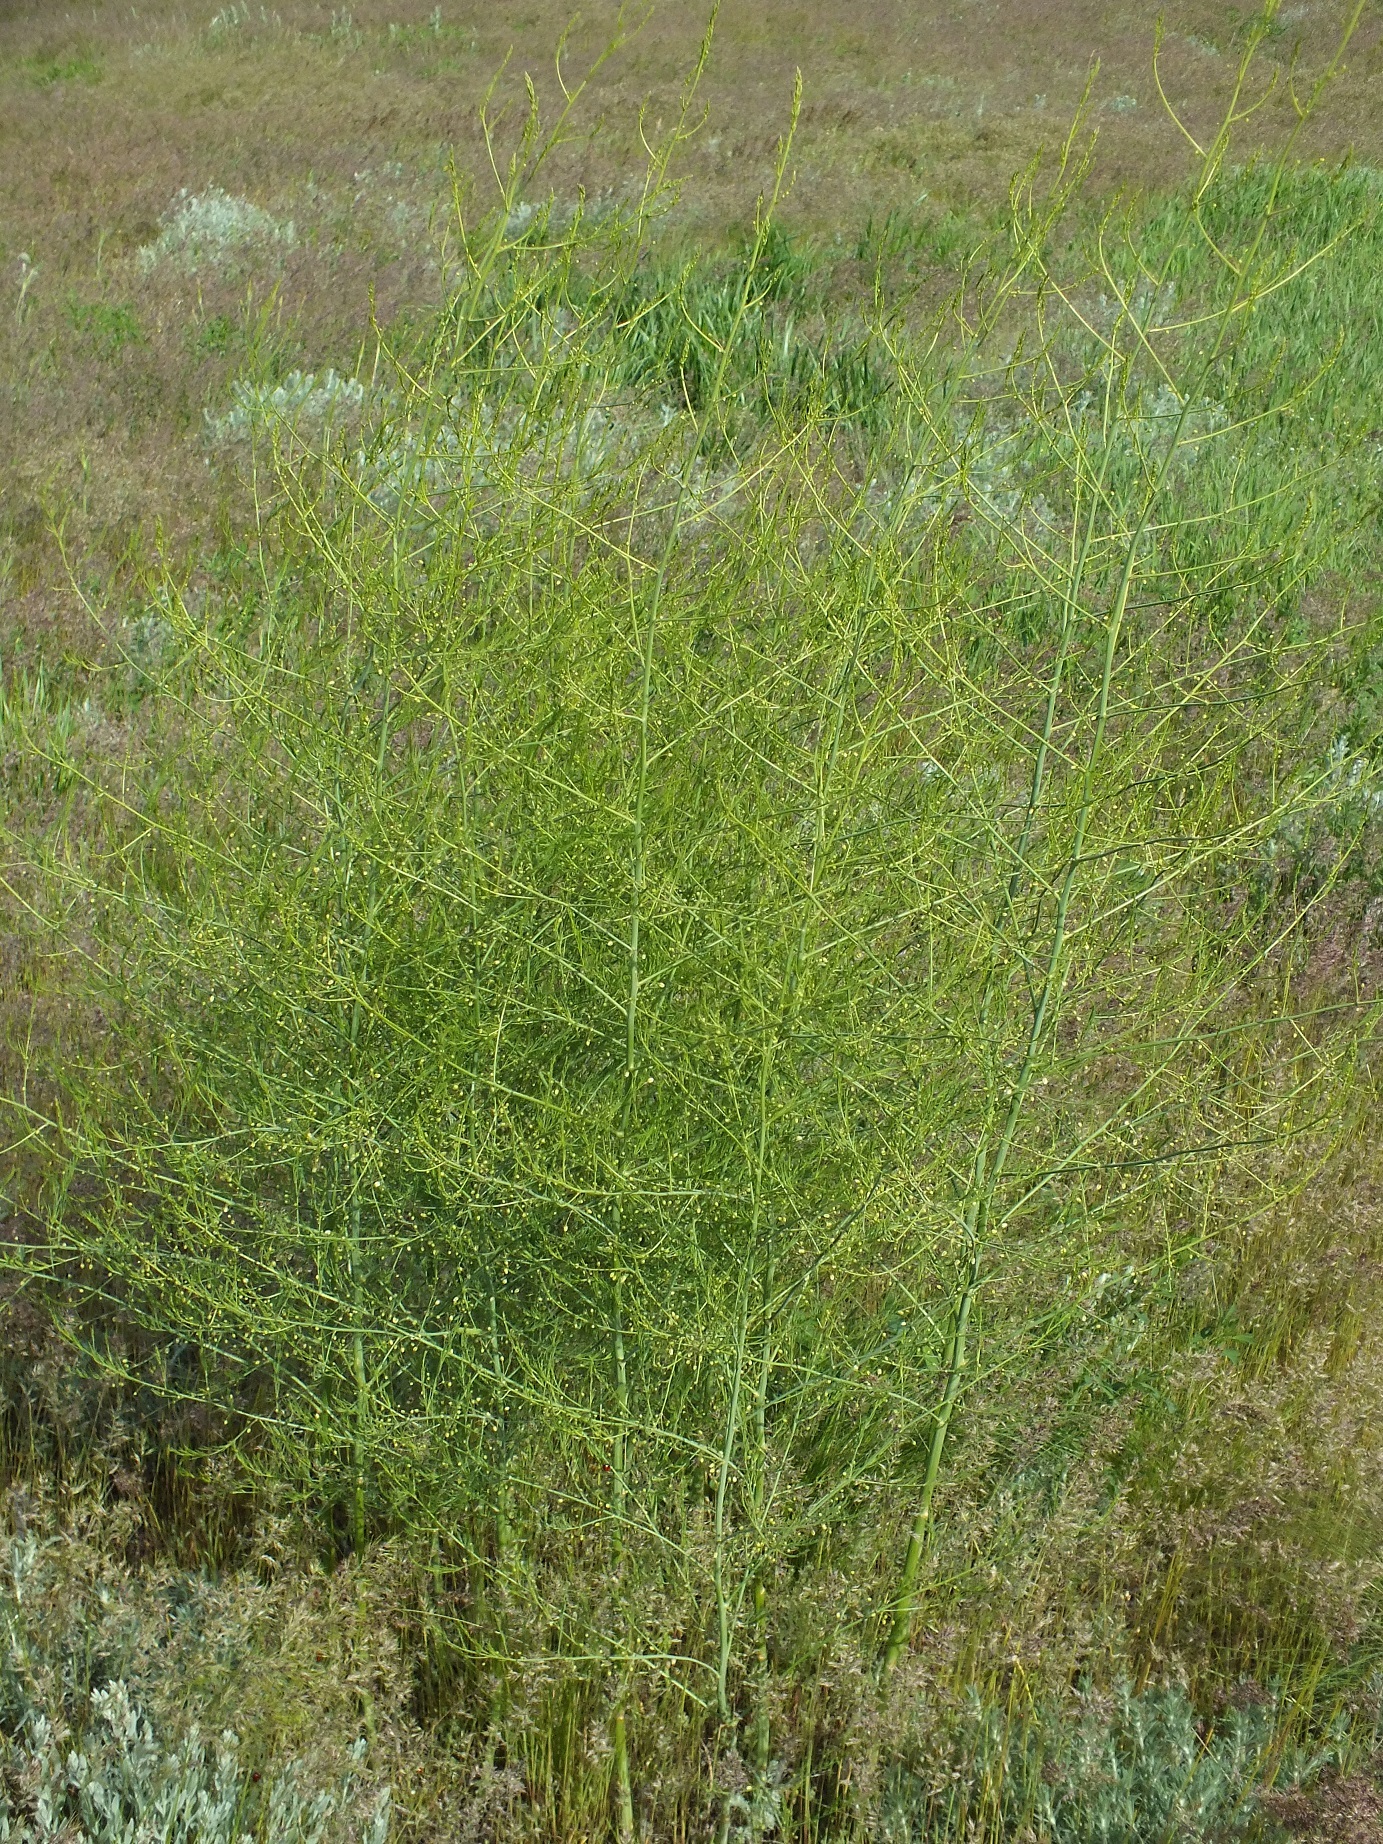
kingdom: Plantae
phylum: Tracheophyta
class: Liliopsida
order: Asparagales
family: Asparagaceae
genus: Asparagus
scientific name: Asparagus officinalis
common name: Garden asparagus
